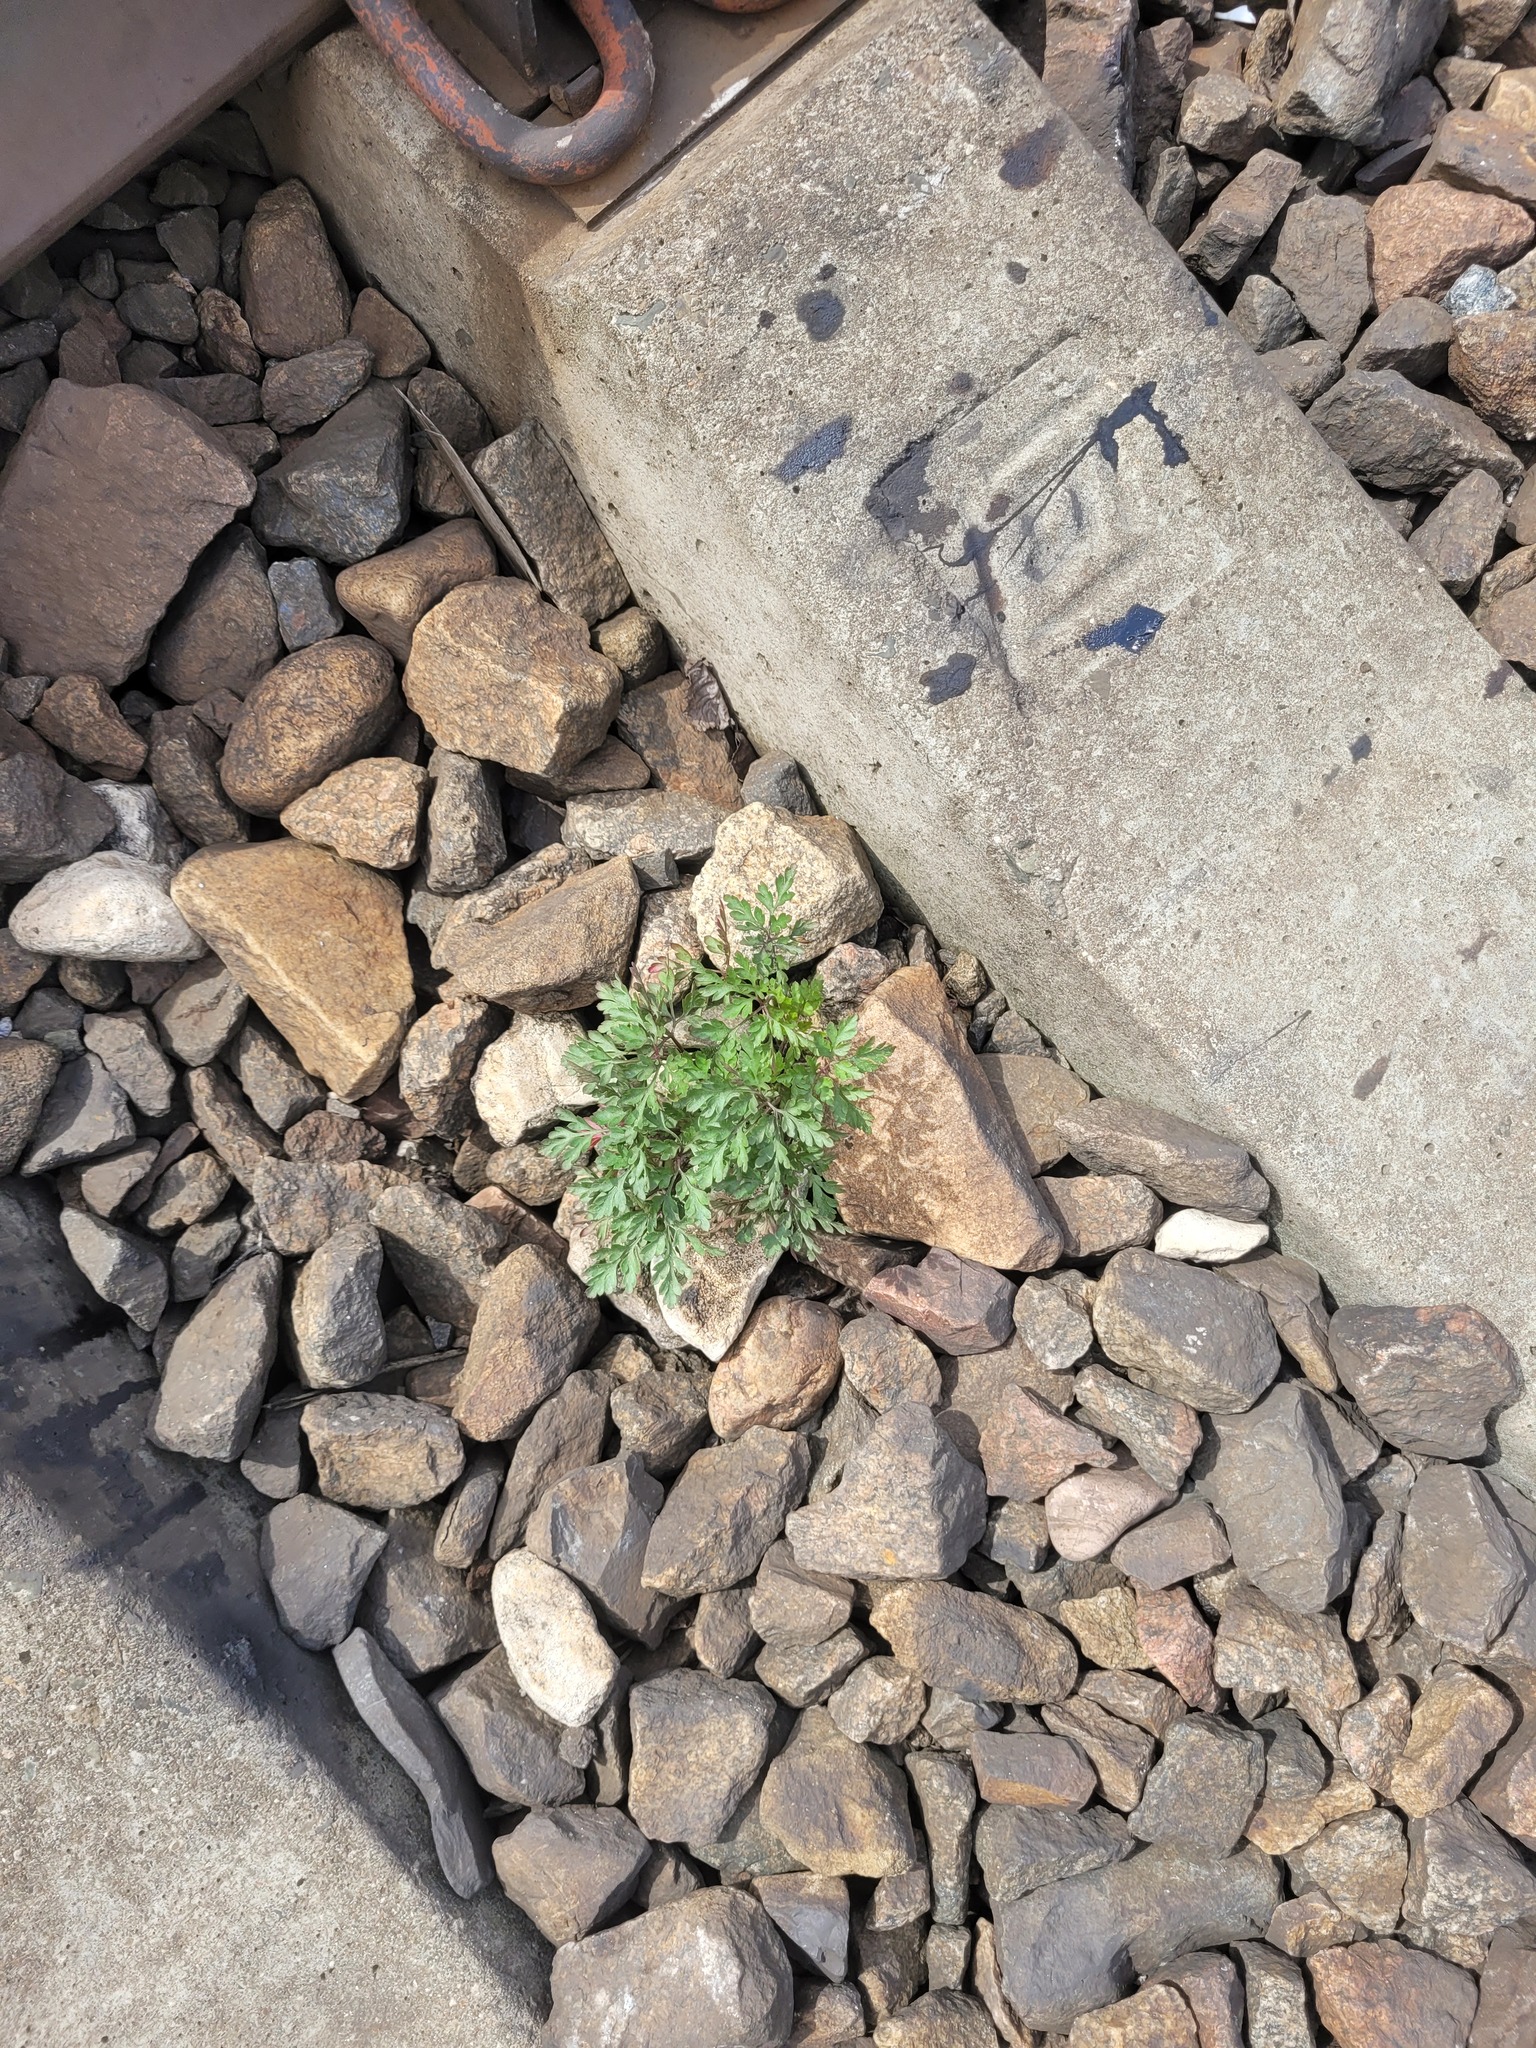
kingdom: Plantae
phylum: Tracheophyta
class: Magnoliopsida
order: Geraniales
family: Geraniaceae
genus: Geranium
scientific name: Geranium robertianum
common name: Herb-robert
